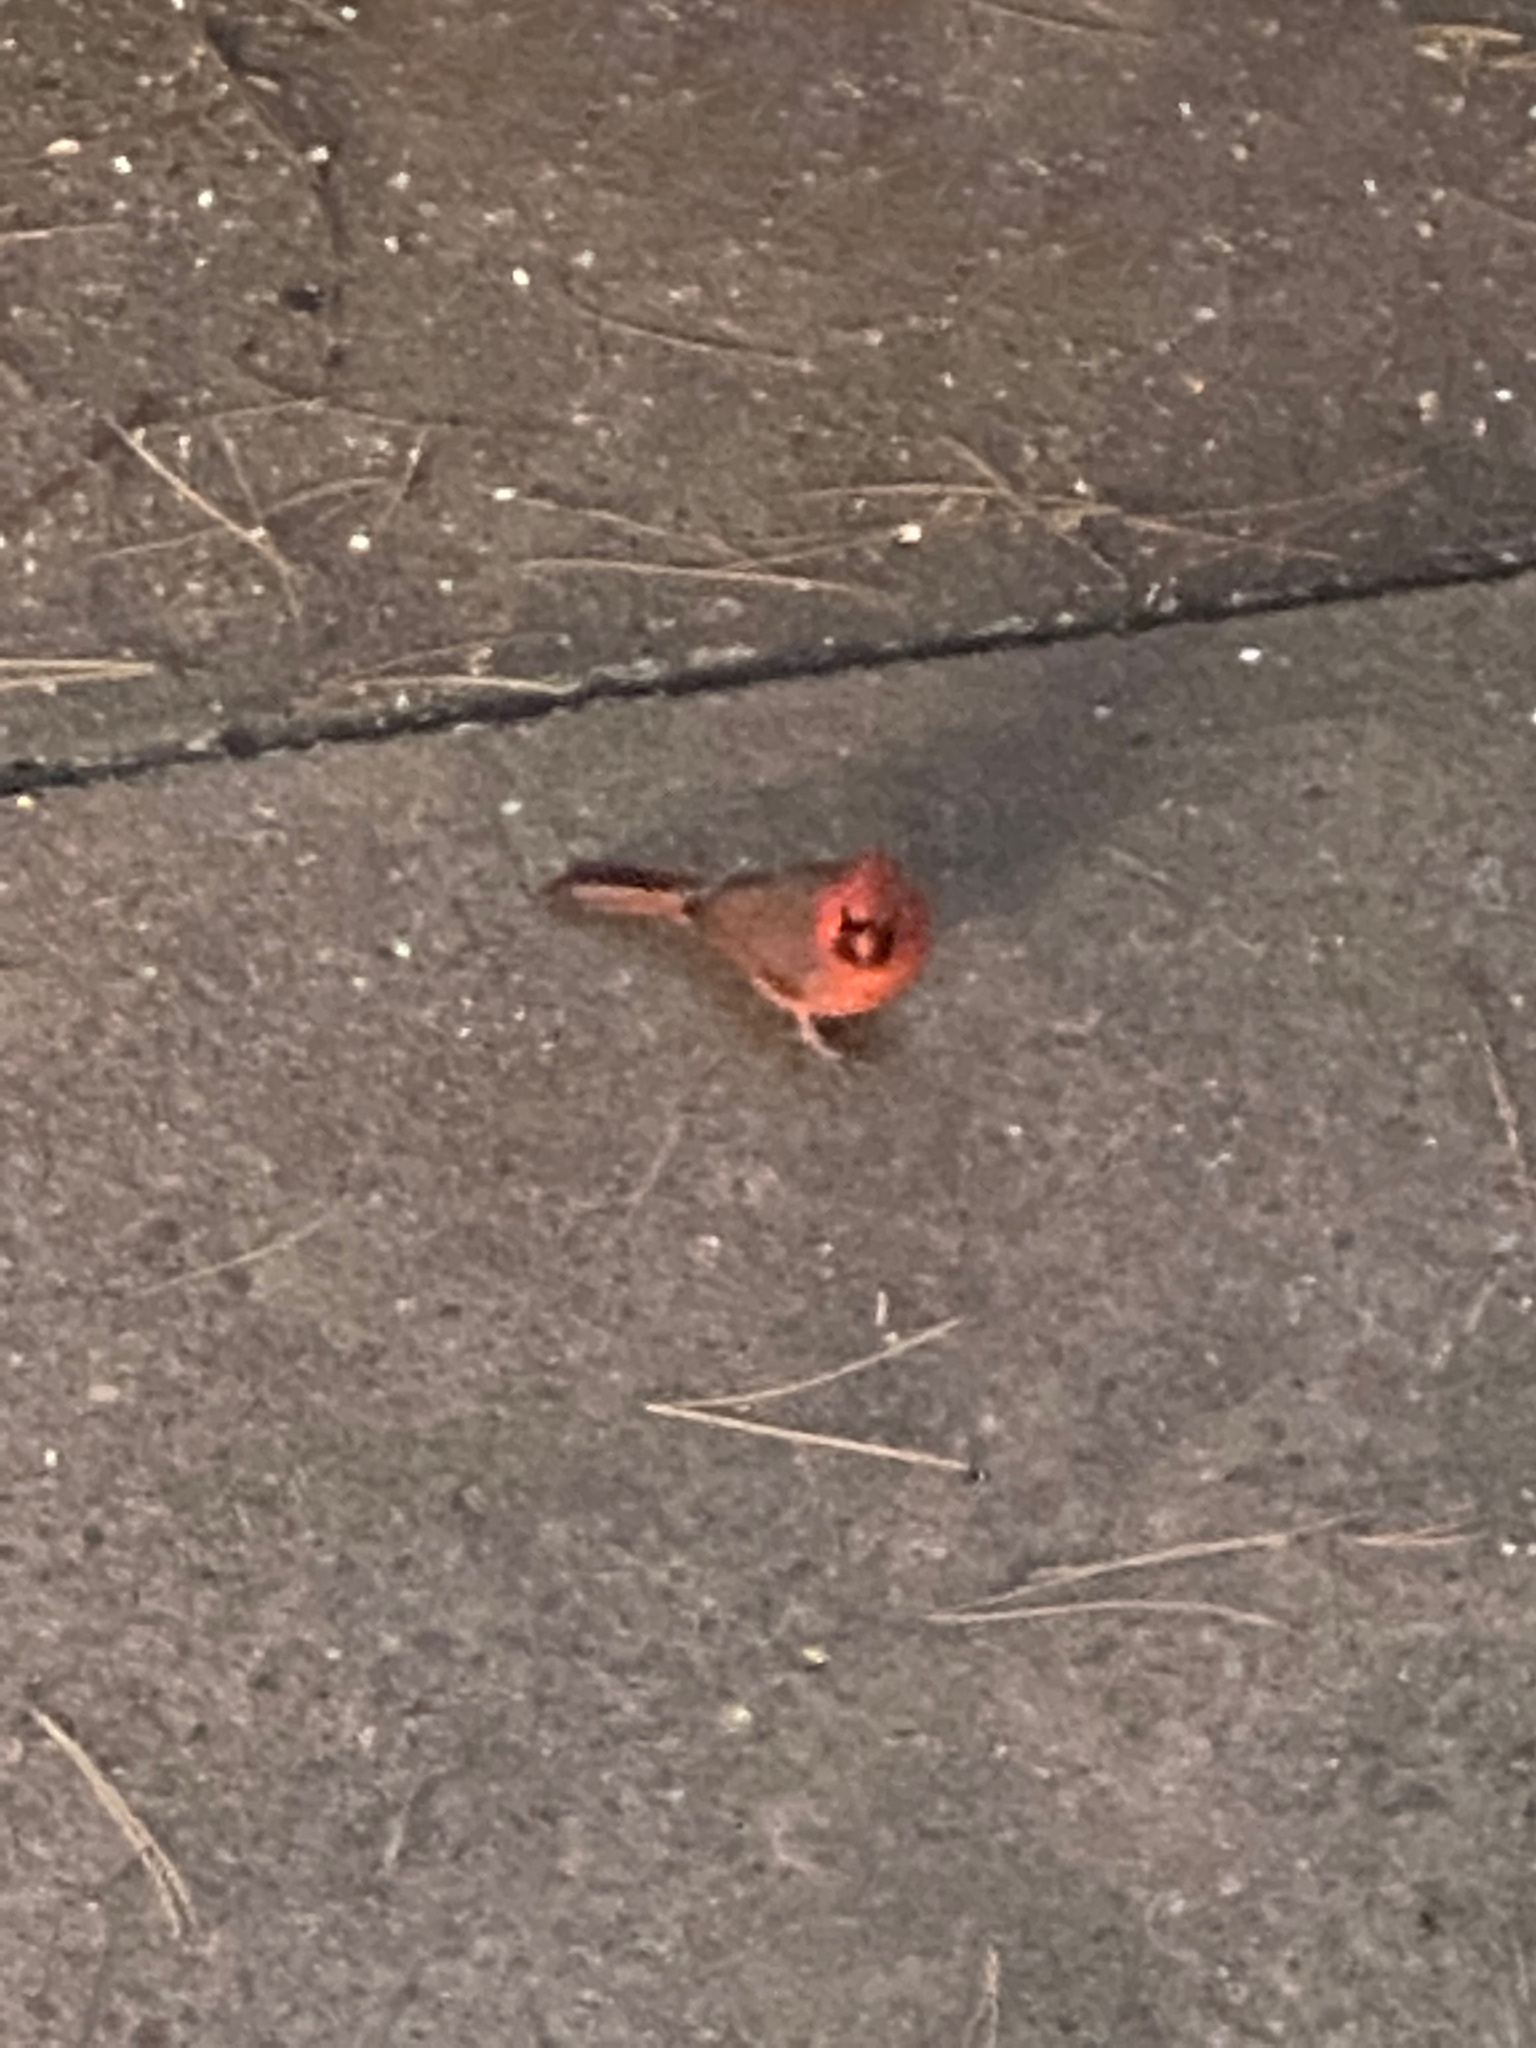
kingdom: Animalia
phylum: Chordata
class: Aves
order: Passeriformes
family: Cardinalidae
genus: Cardinalis
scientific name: Cardinalis cardinalis
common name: Northern cardinal
